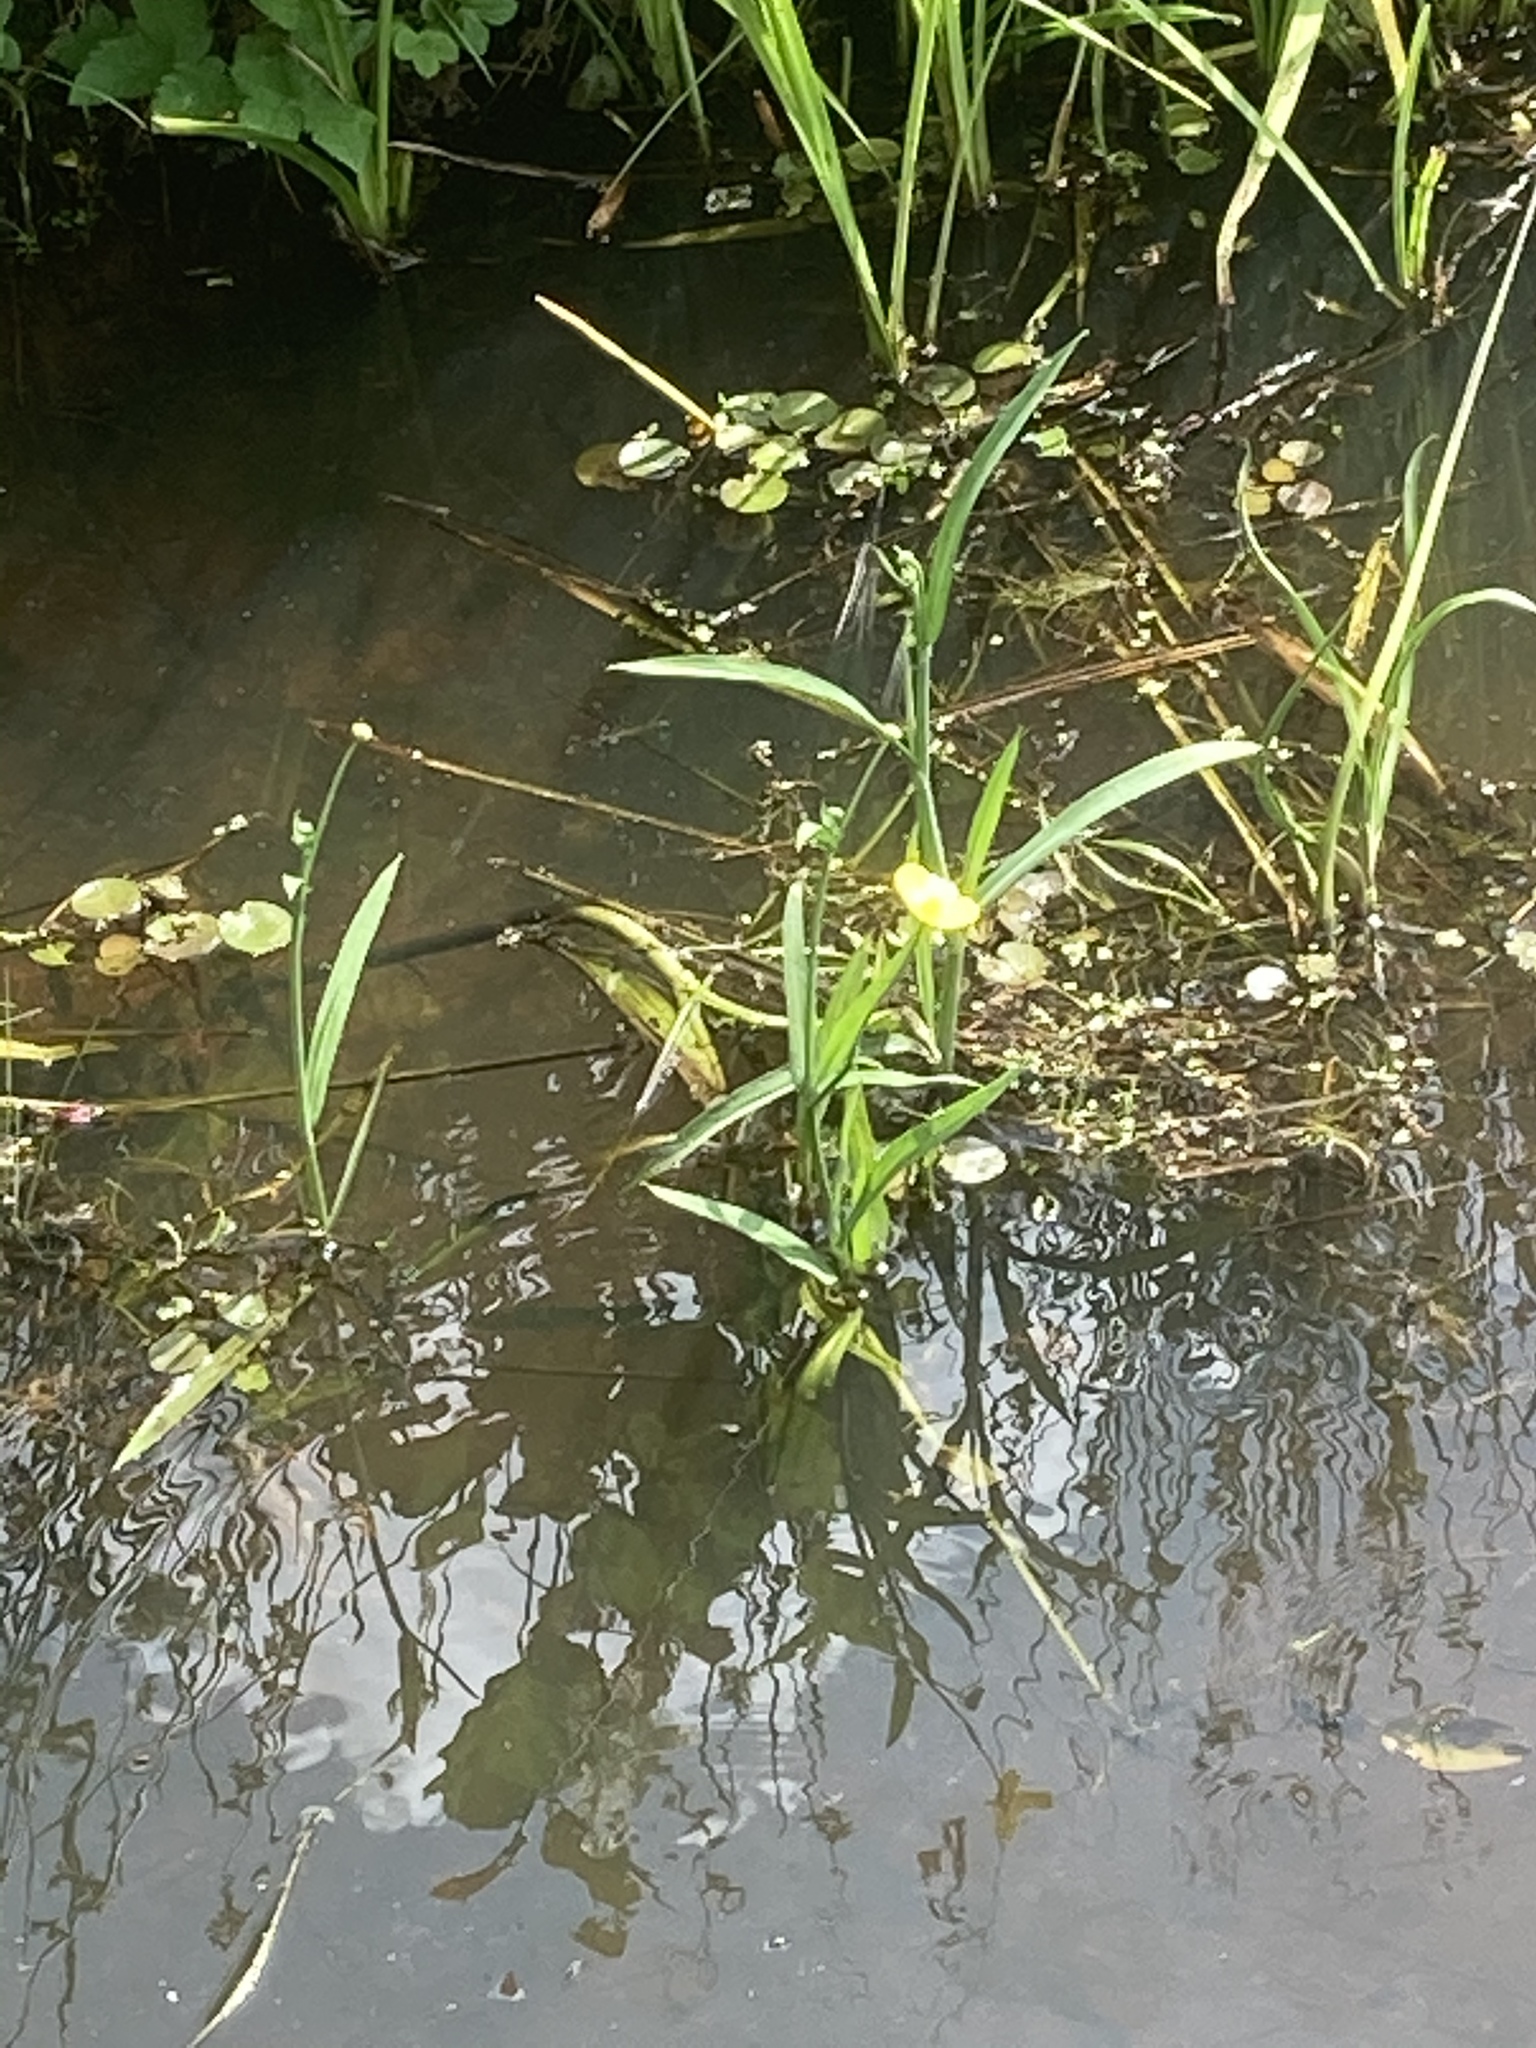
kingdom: Plantae
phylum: Tracheophyta
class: Magnoliopsida
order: Ranunculales
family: Ranunculaceae
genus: Ranunculus
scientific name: Ranunculus lingua
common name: Greater spearwort
